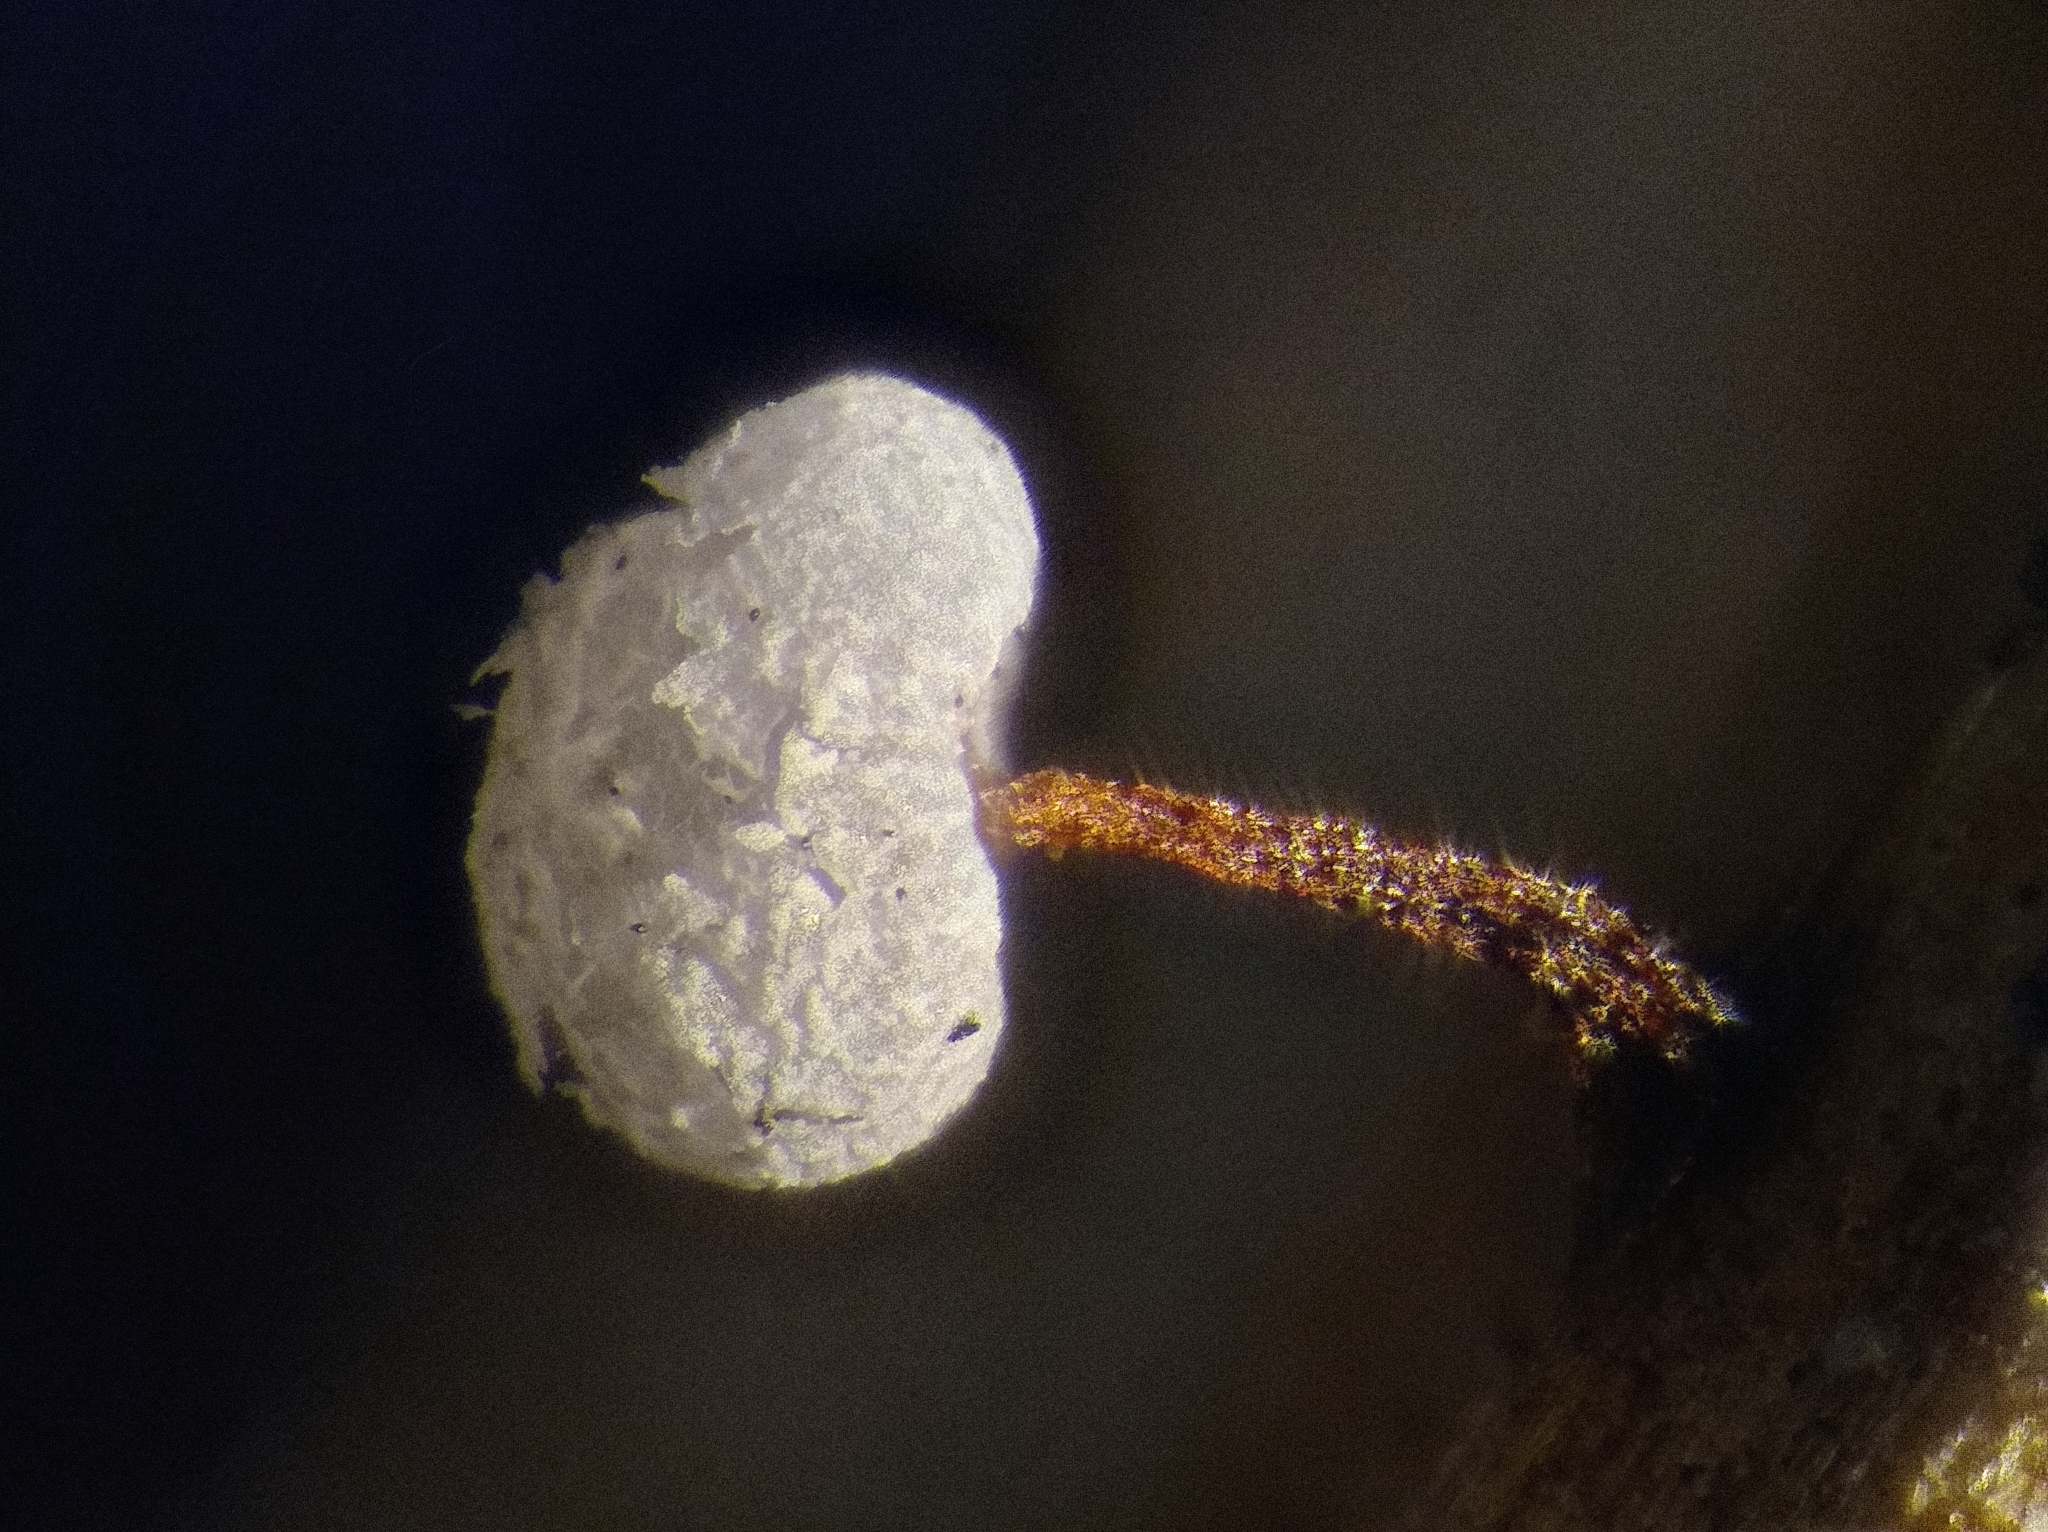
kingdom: Protozoa
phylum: Mycetozoa
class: Myxomycetes
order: Physarales
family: Physaraceae
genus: Physarum
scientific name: Physarum gravidum
